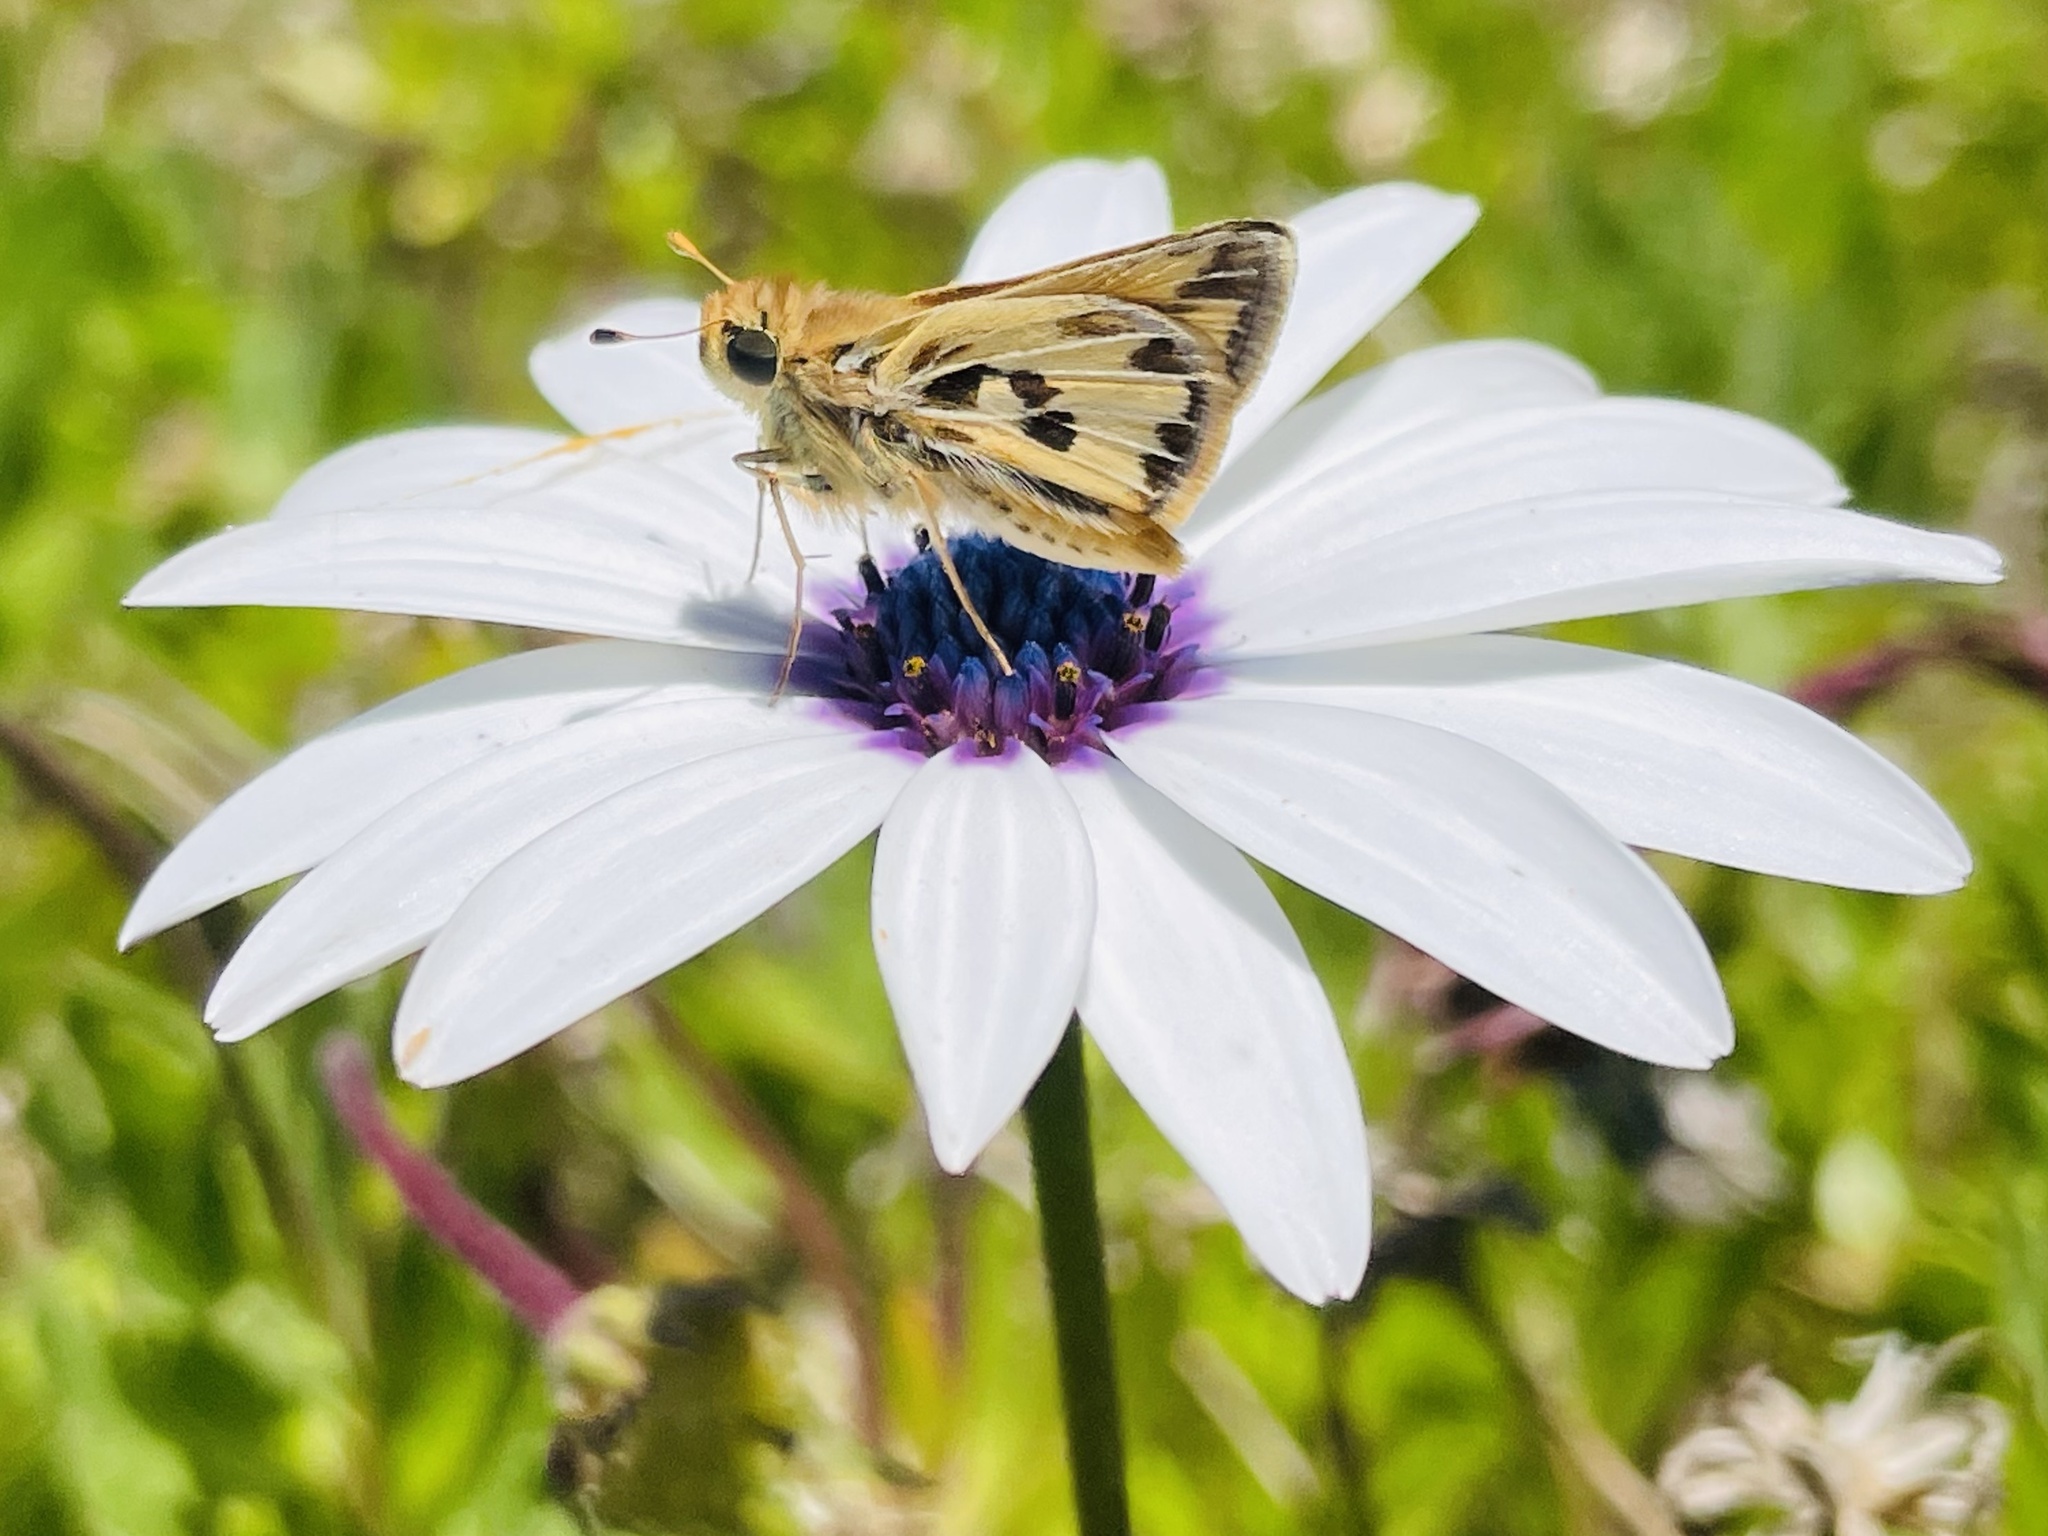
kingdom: Animalia
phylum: Arthropoda
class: Insecta
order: Lepidoptera
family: Hesperiidae
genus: Hylephila
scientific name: Hylephila fasciolata
